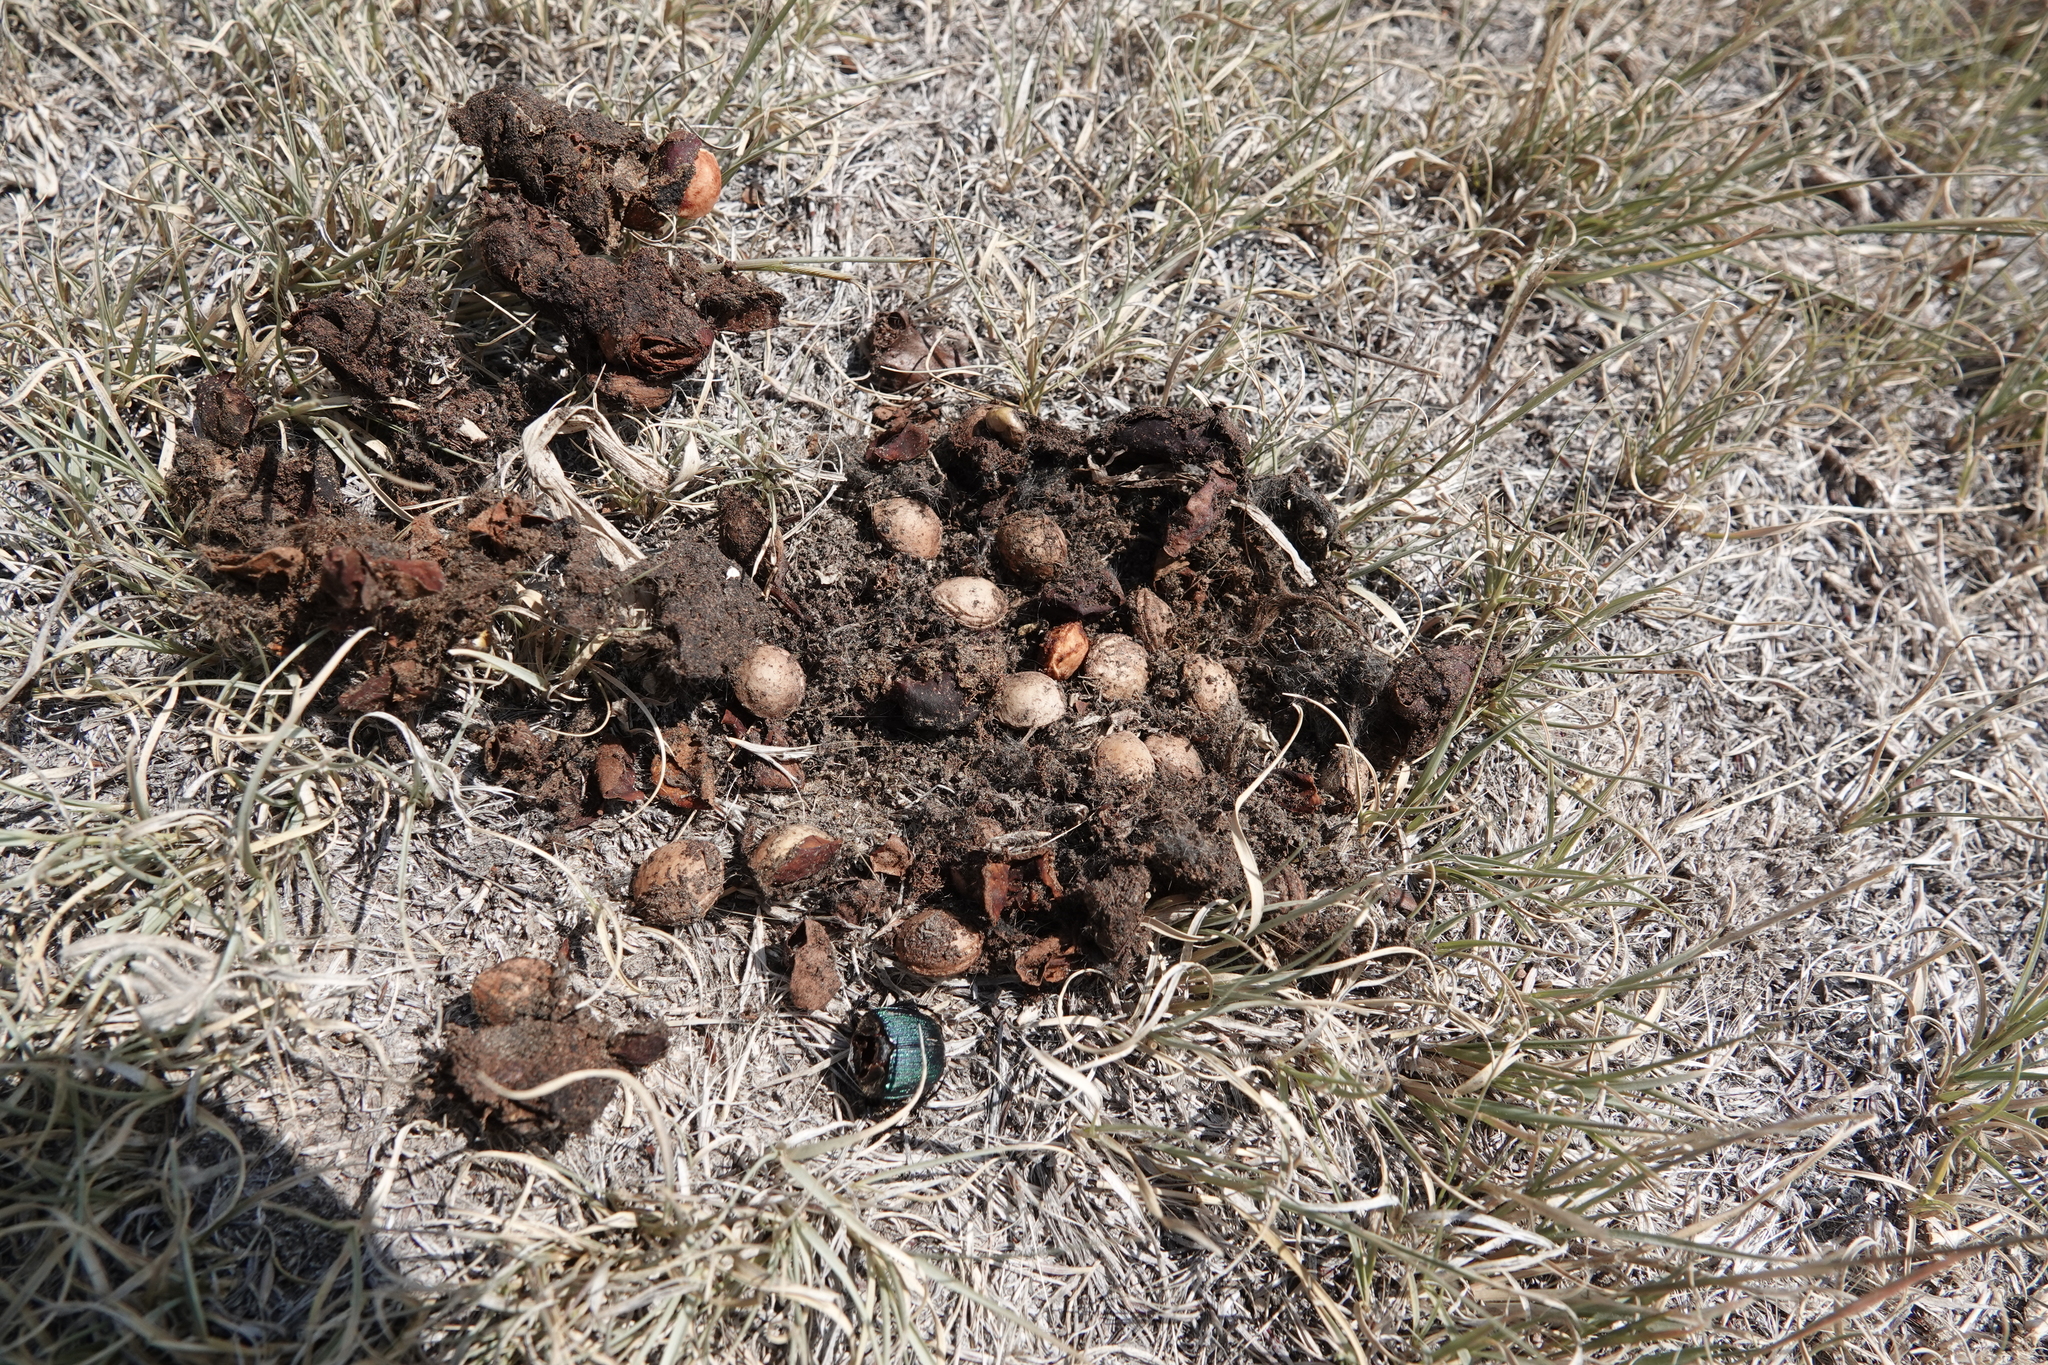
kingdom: Animalia
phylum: Arthropoda
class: Insecta
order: Coleoptera
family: Scarabaeidae
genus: Phanaeus
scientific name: Phanaeus vindex
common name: Rainbow scarab
